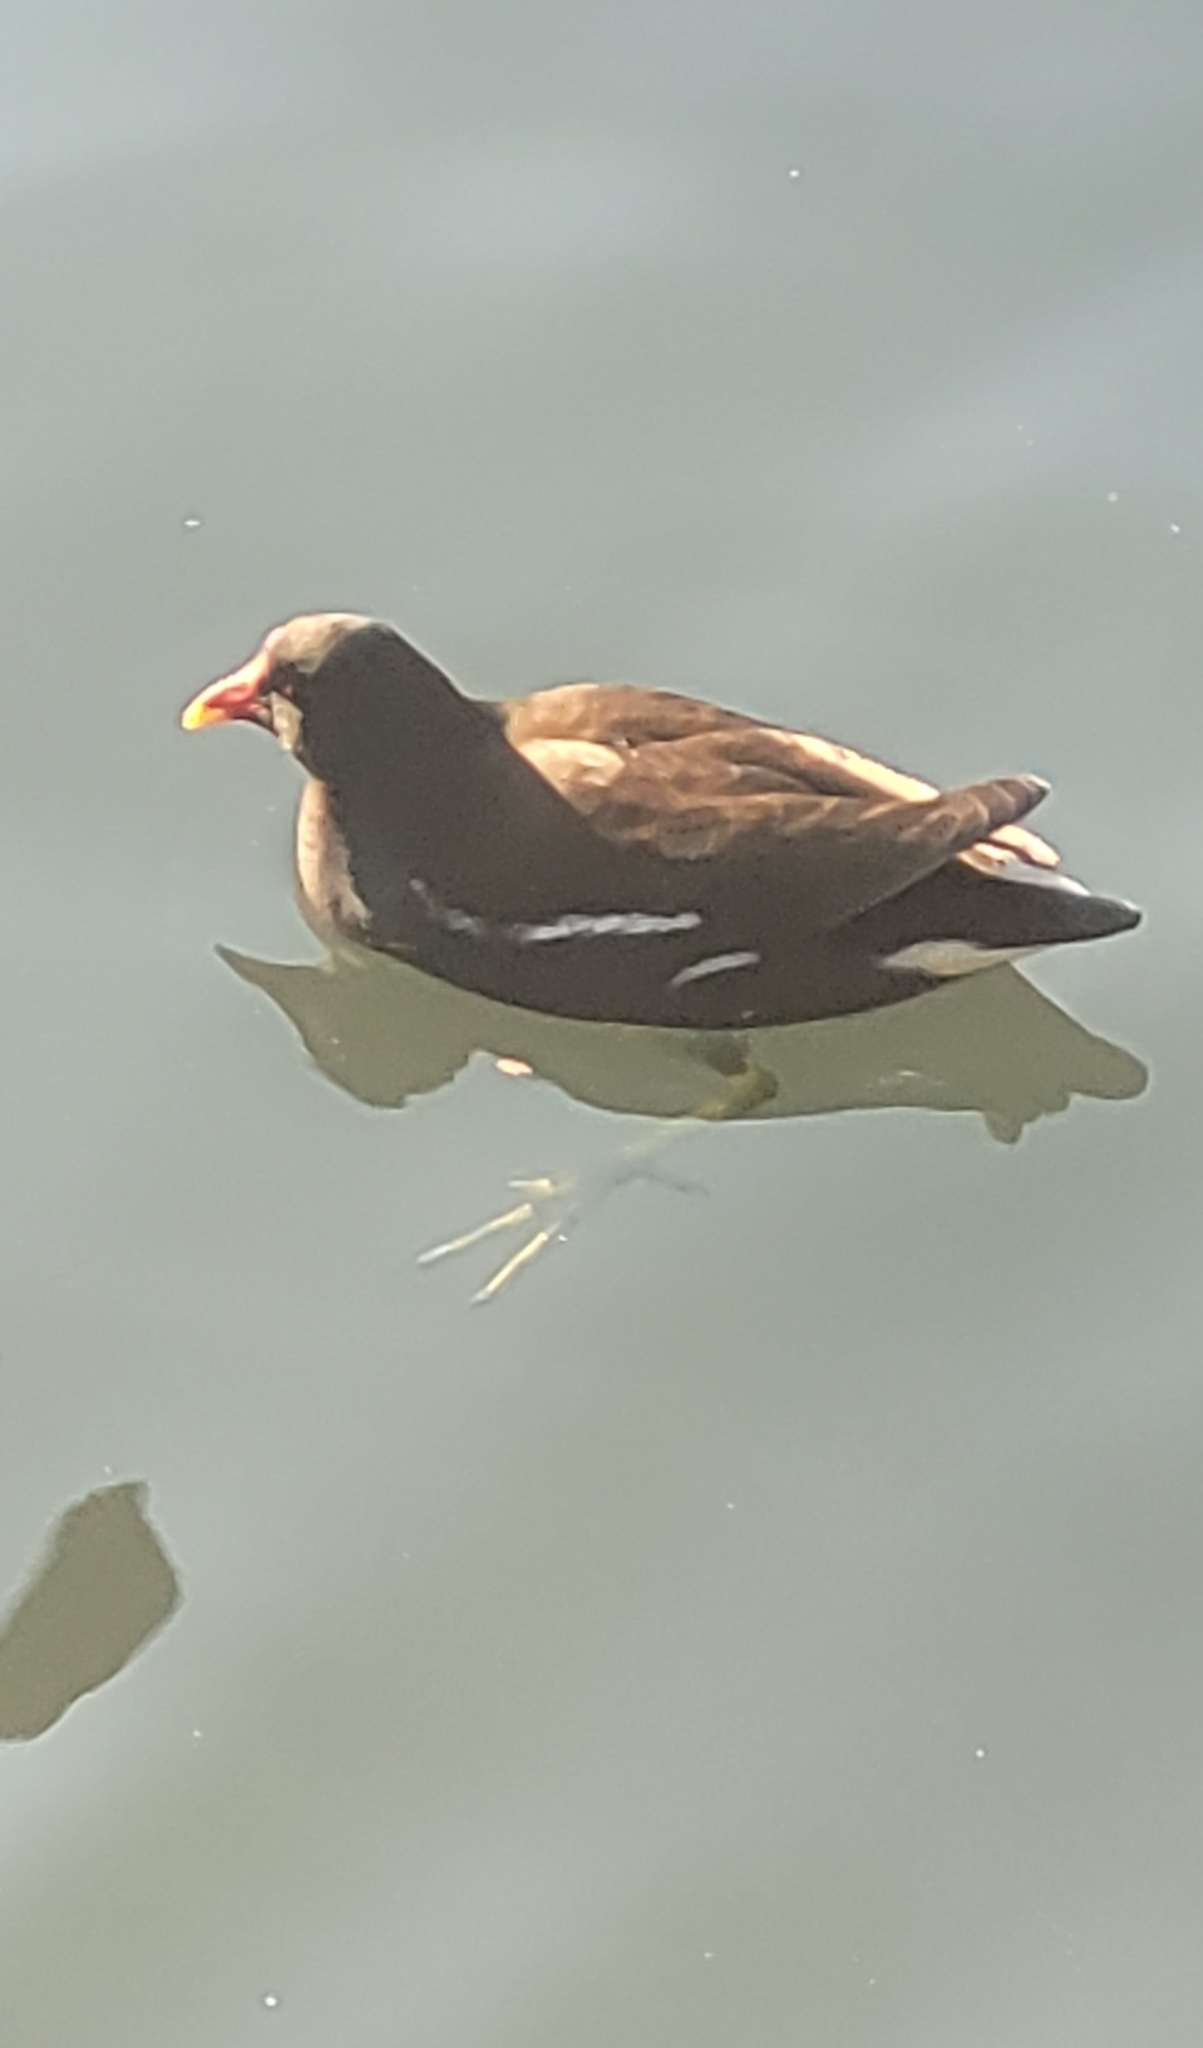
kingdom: Animalia
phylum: Chordata
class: Aves
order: Gruiformes
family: Rallidae
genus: Gallinula
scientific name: Gallinula chloropus
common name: Common moorhen
